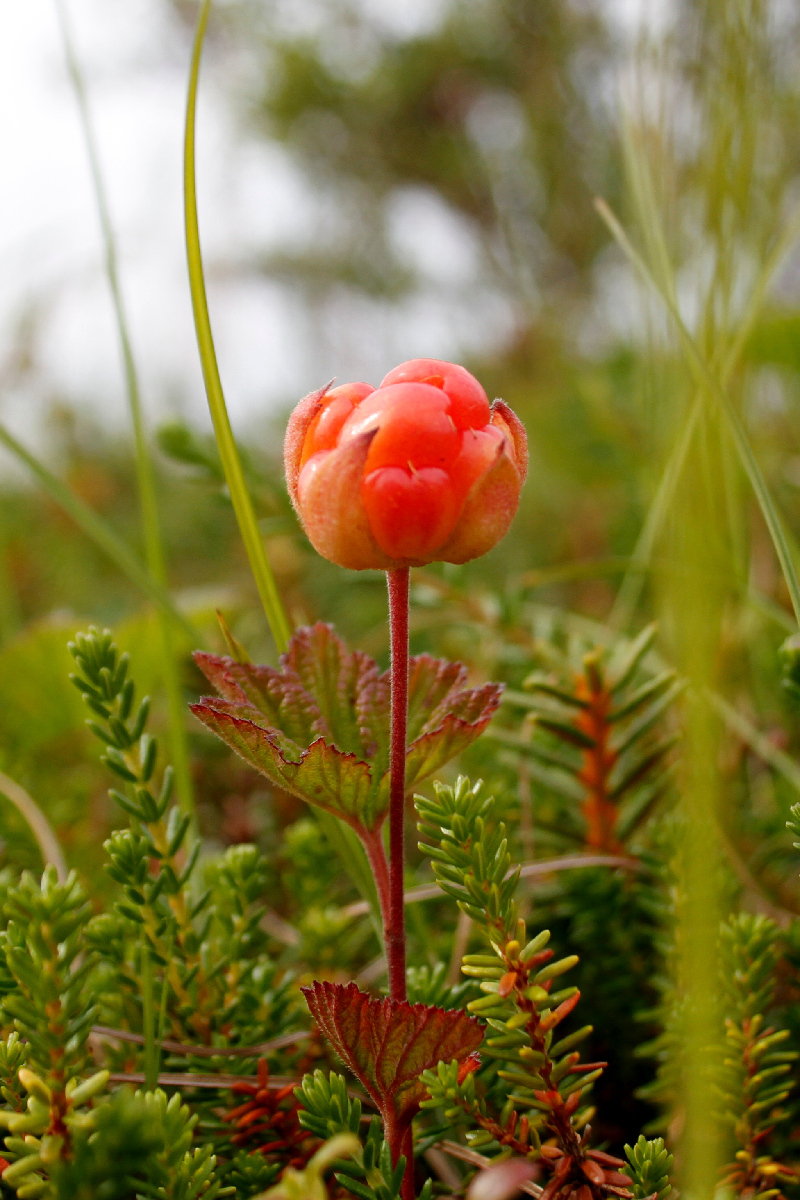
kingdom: Plantae
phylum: Tracheophyta
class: Magnoliopsida
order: Rosales
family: Rosaceae
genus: Rubus
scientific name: Rubus chamaemorus
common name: Cloudberry
